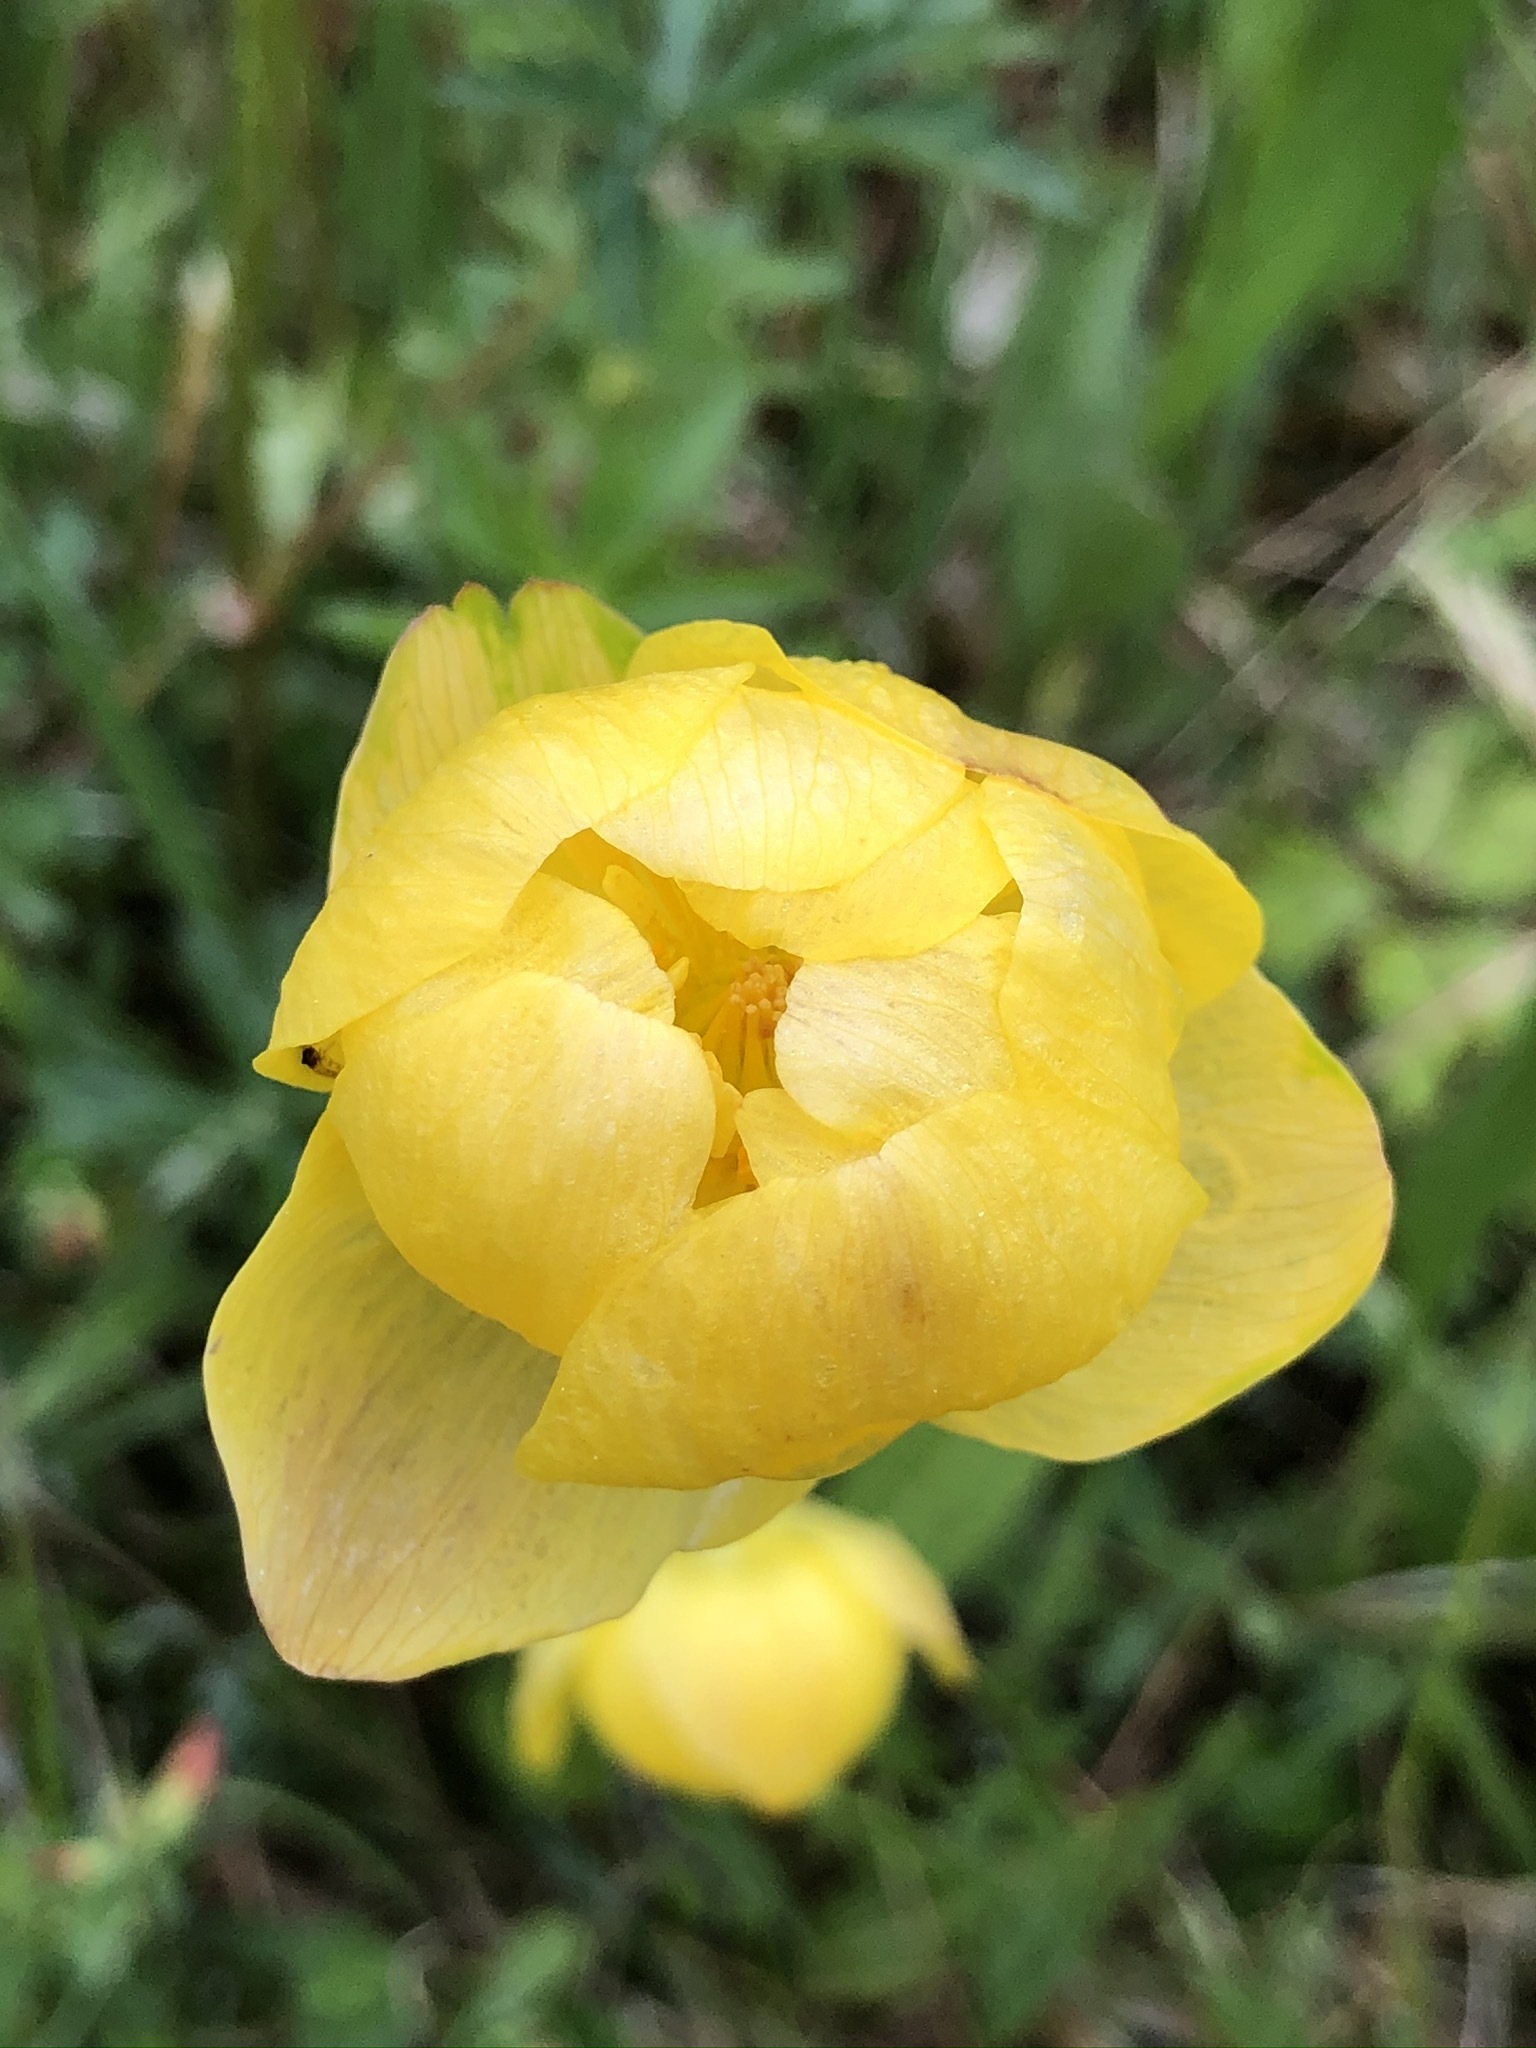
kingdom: Plantae
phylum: Tracheophyta
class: Magnoliopsida
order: Ranunculales
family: Ranunculaceae
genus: Trollius
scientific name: Trollius europaeus
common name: European globeflower
